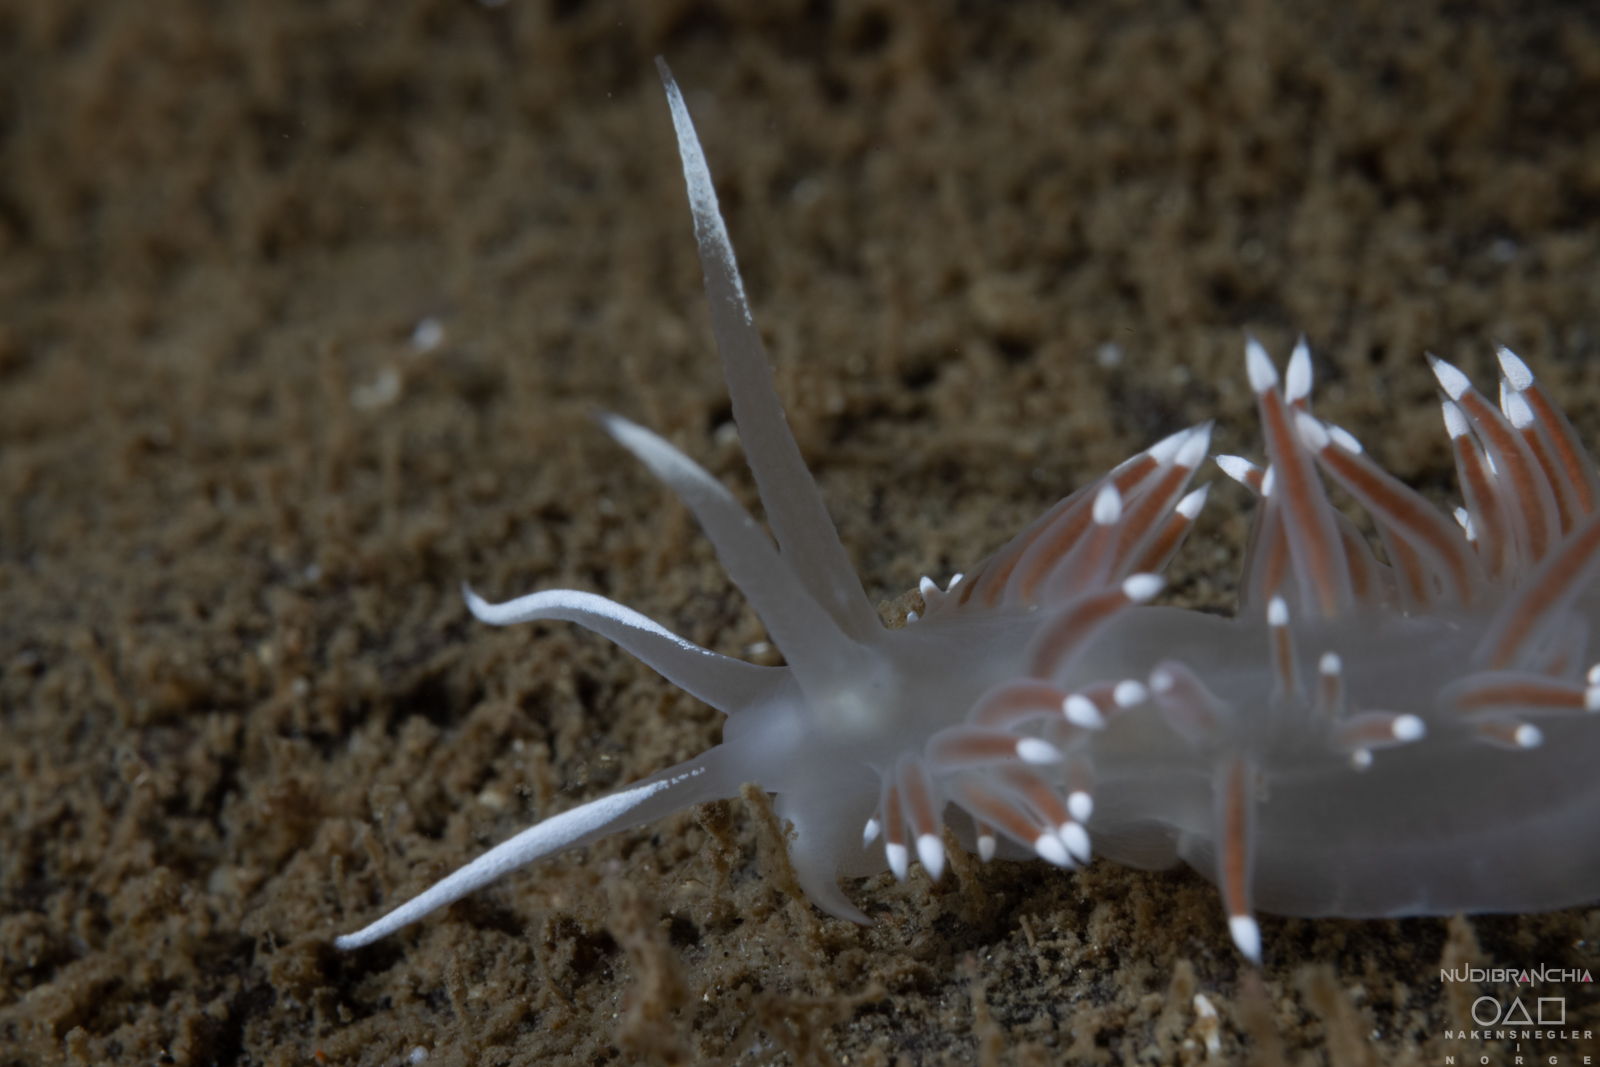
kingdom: Animalia
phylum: Mollusca
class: Gastropoda
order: Nudibranchia
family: Coryphellidae
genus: Coryphella
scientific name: Coryphella browni
